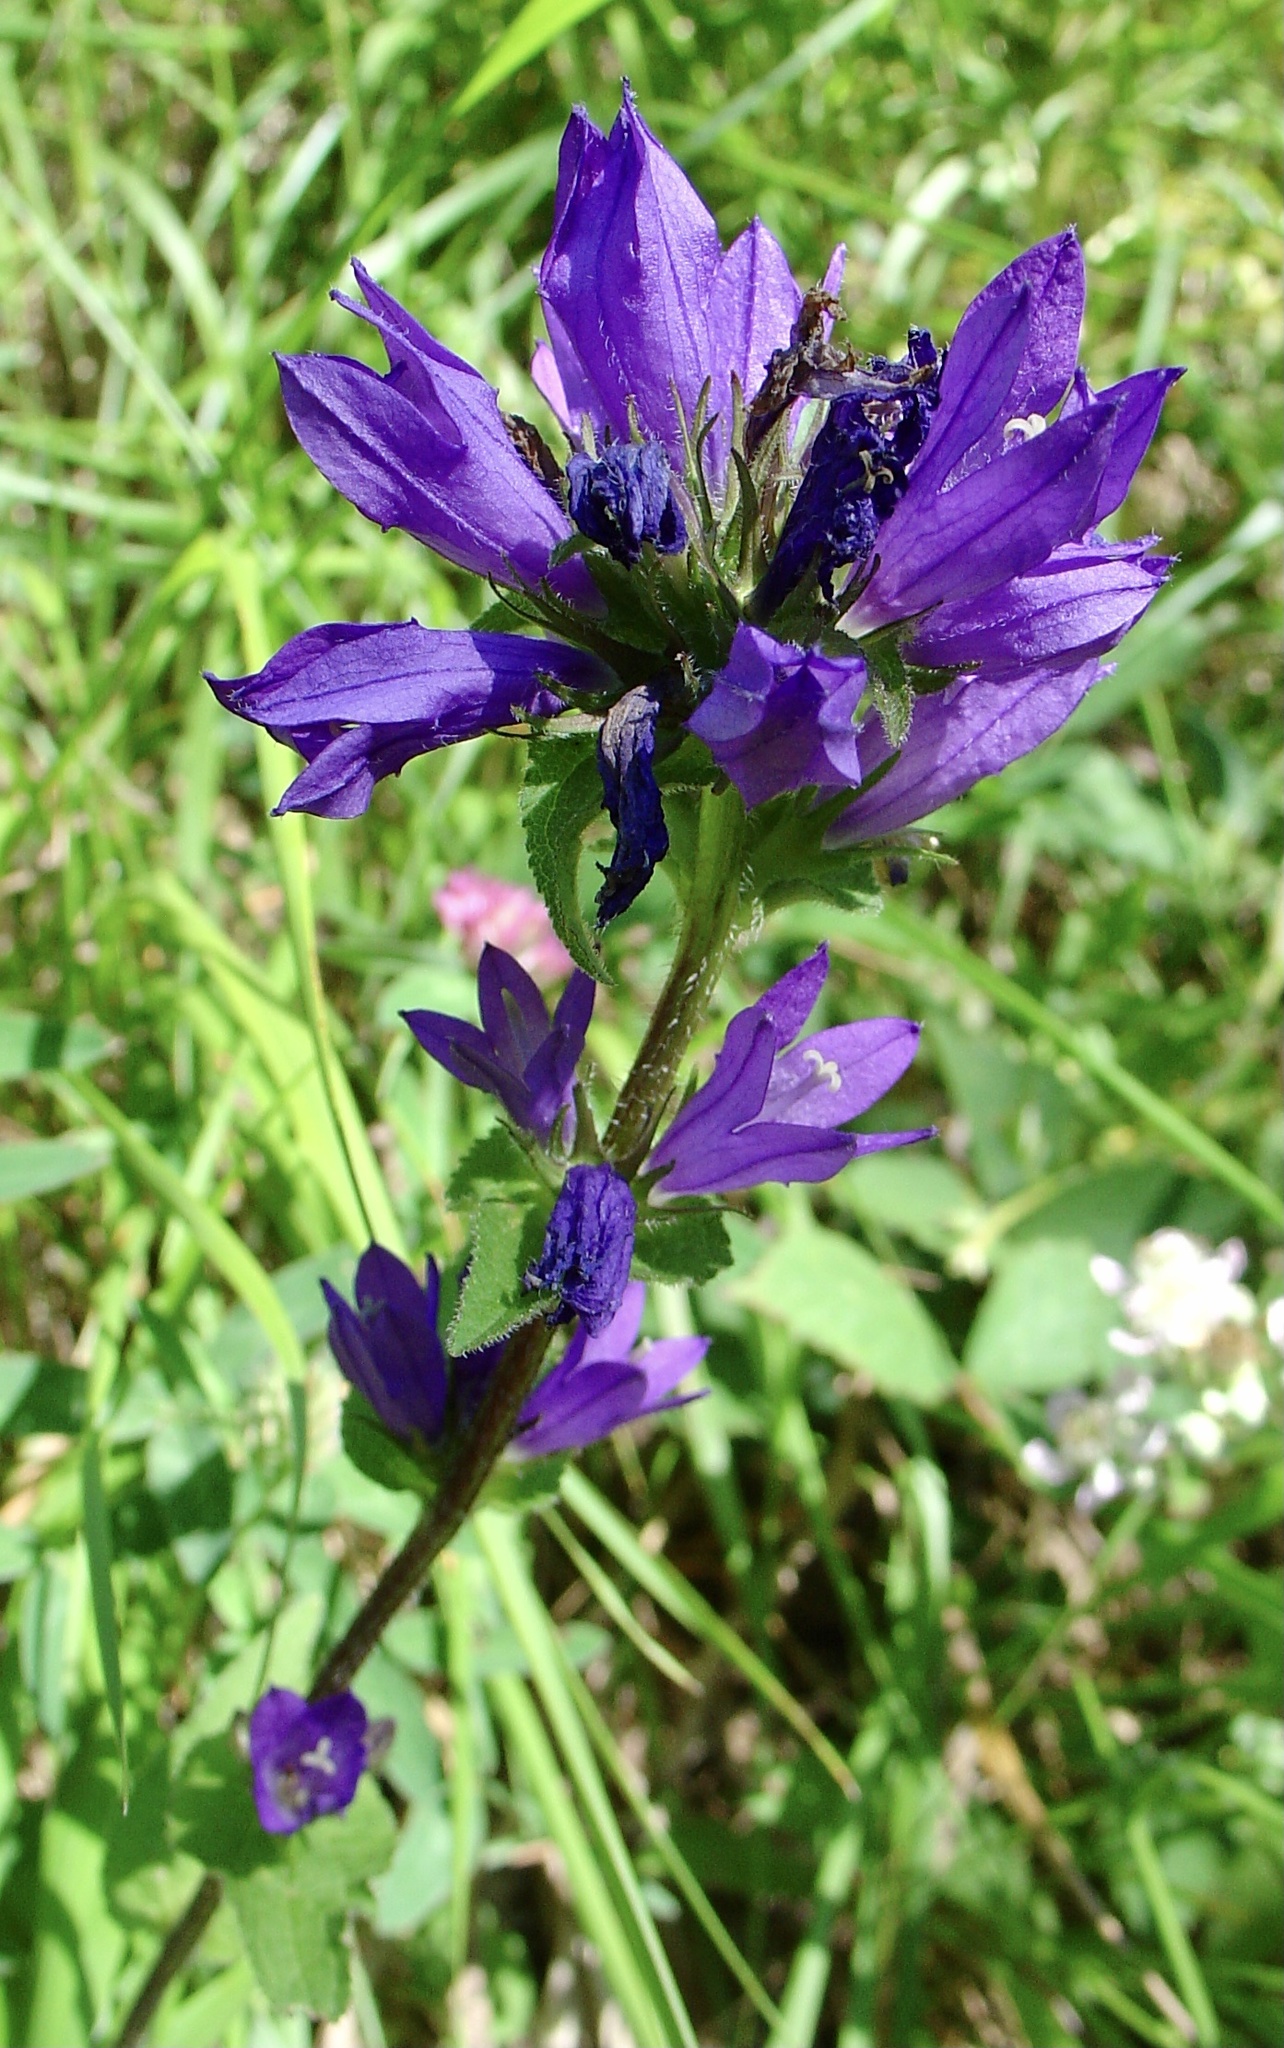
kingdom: Plantae
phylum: Tracheophyta
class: Magnoliopsida
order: Asterales
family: Campanulaceae
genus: Campanula
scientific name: Campanula glomerata
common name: Clustered bellflower
